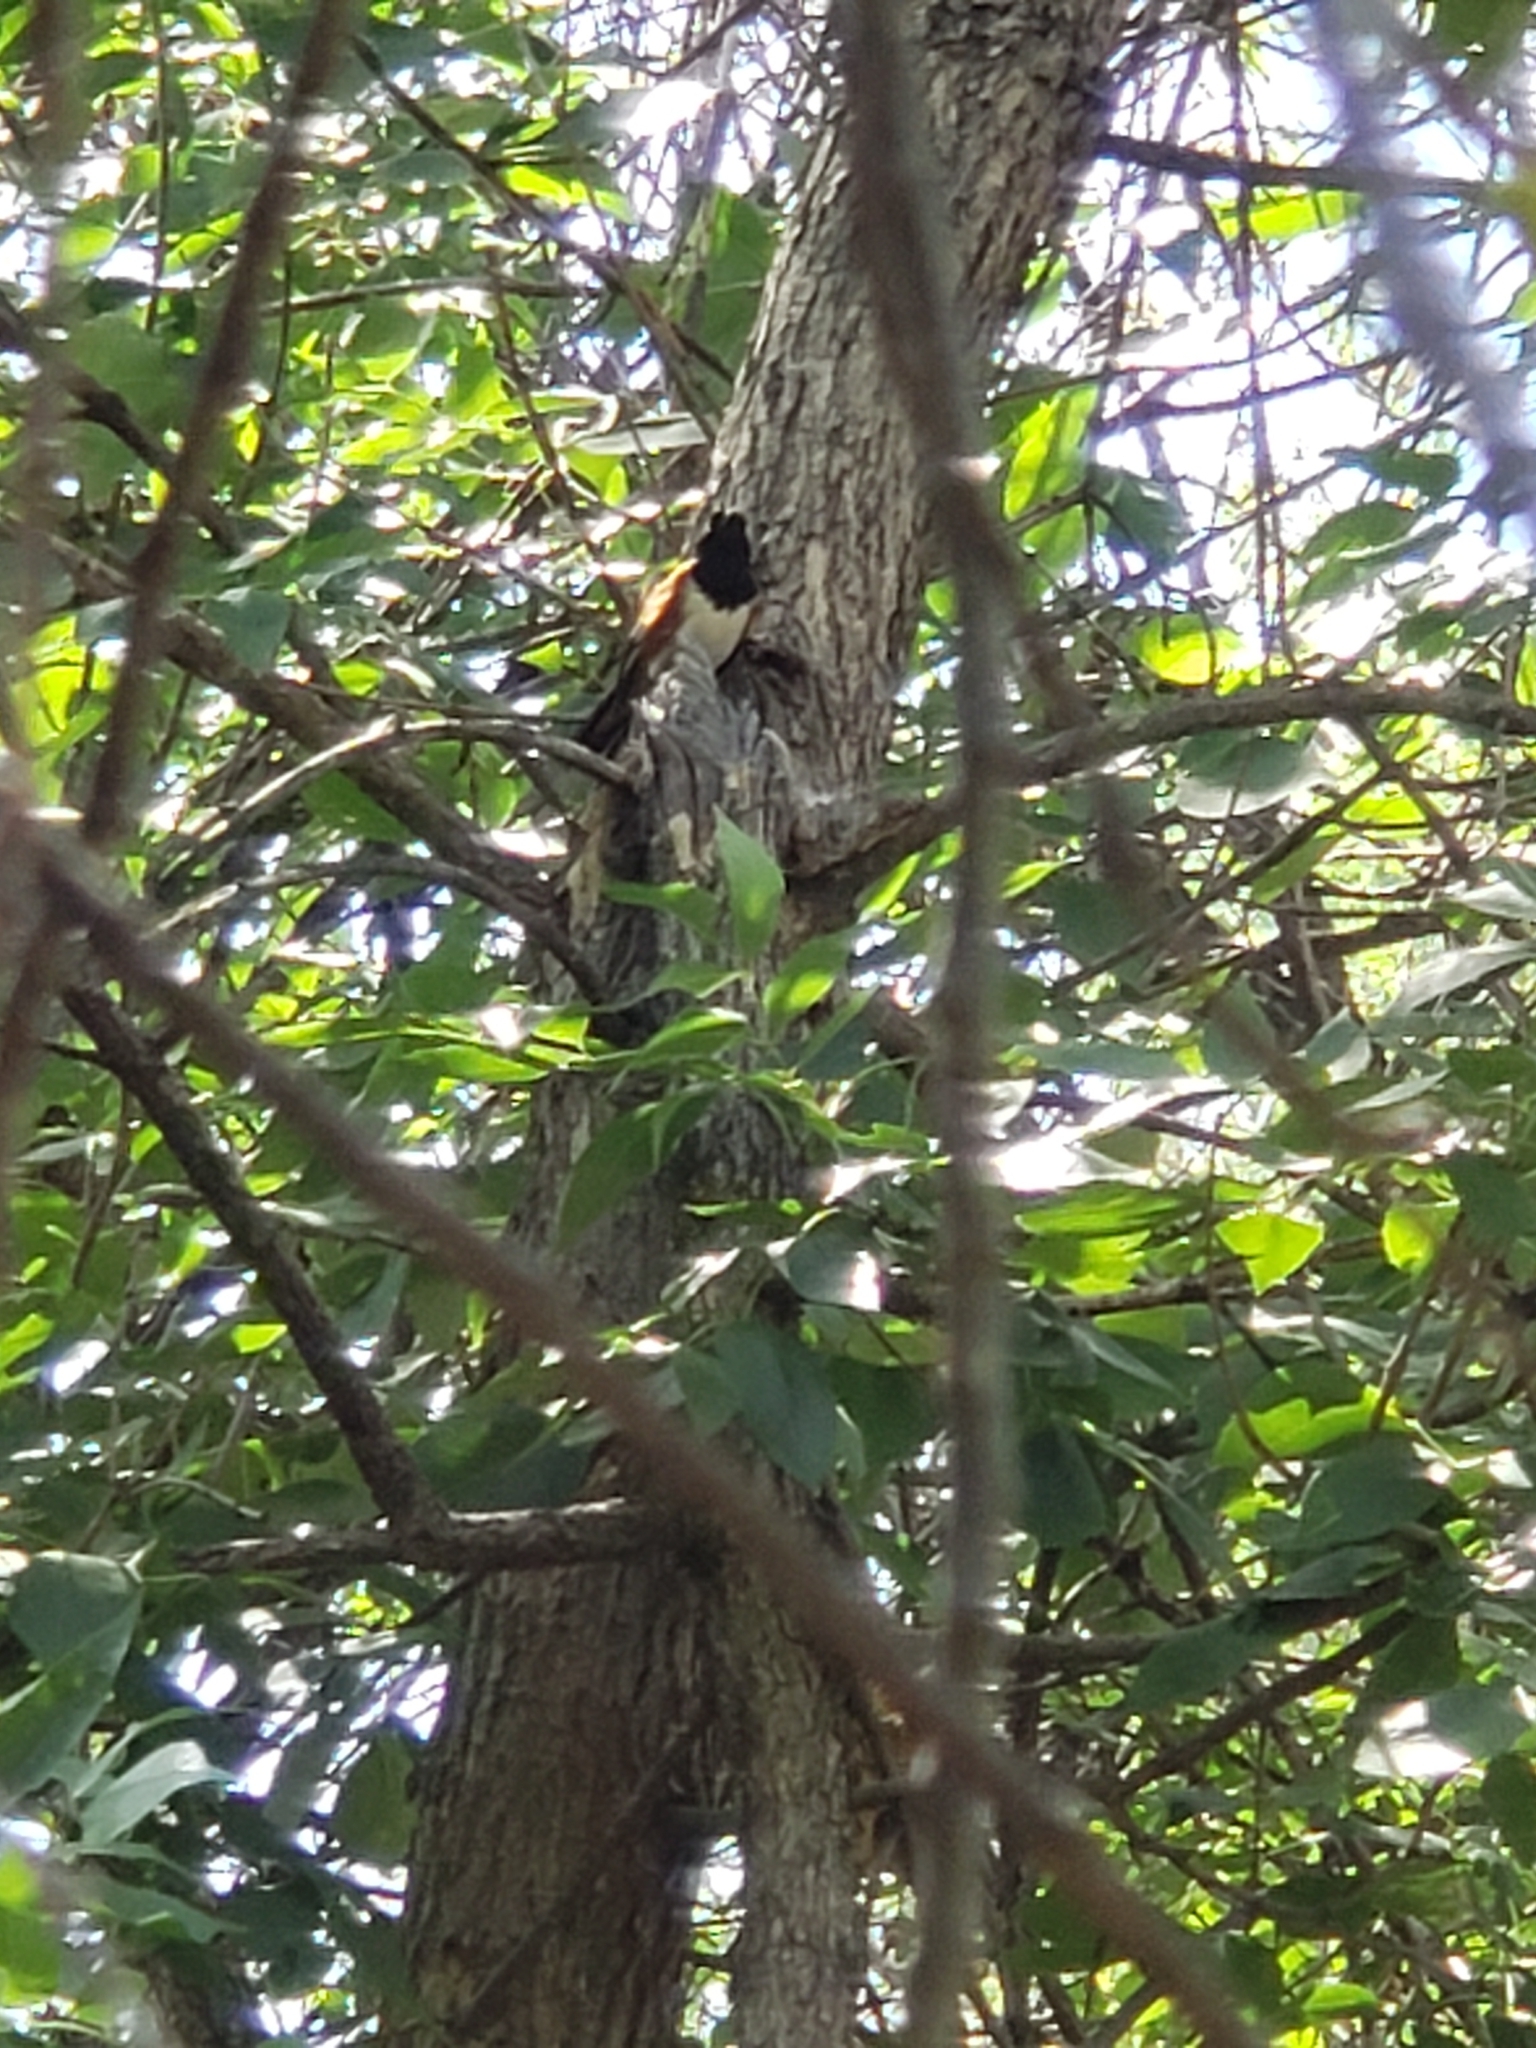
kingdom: Animalia
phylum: Chordata
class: Aves
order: Passeriformes
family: Passerellidae
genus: Pipilo
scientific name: Pipilo maculatus
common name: Spotted towhee
